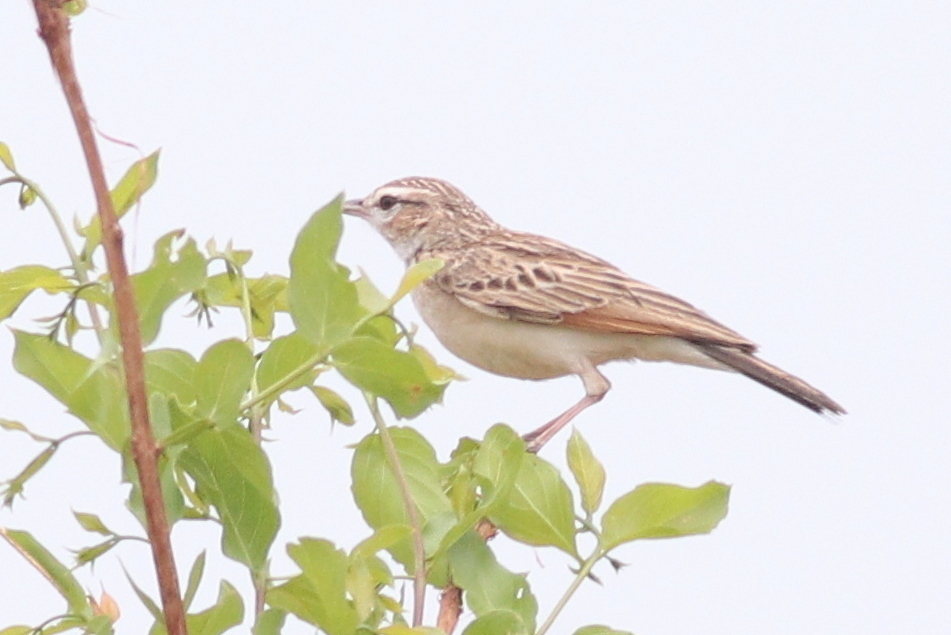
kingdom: Animalia
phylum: Chordata
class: Aves
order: Passeriformes
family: Alaudidae
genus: Calendulauda
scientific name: Calendulauda africanoides
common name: Fawn-colored lark
